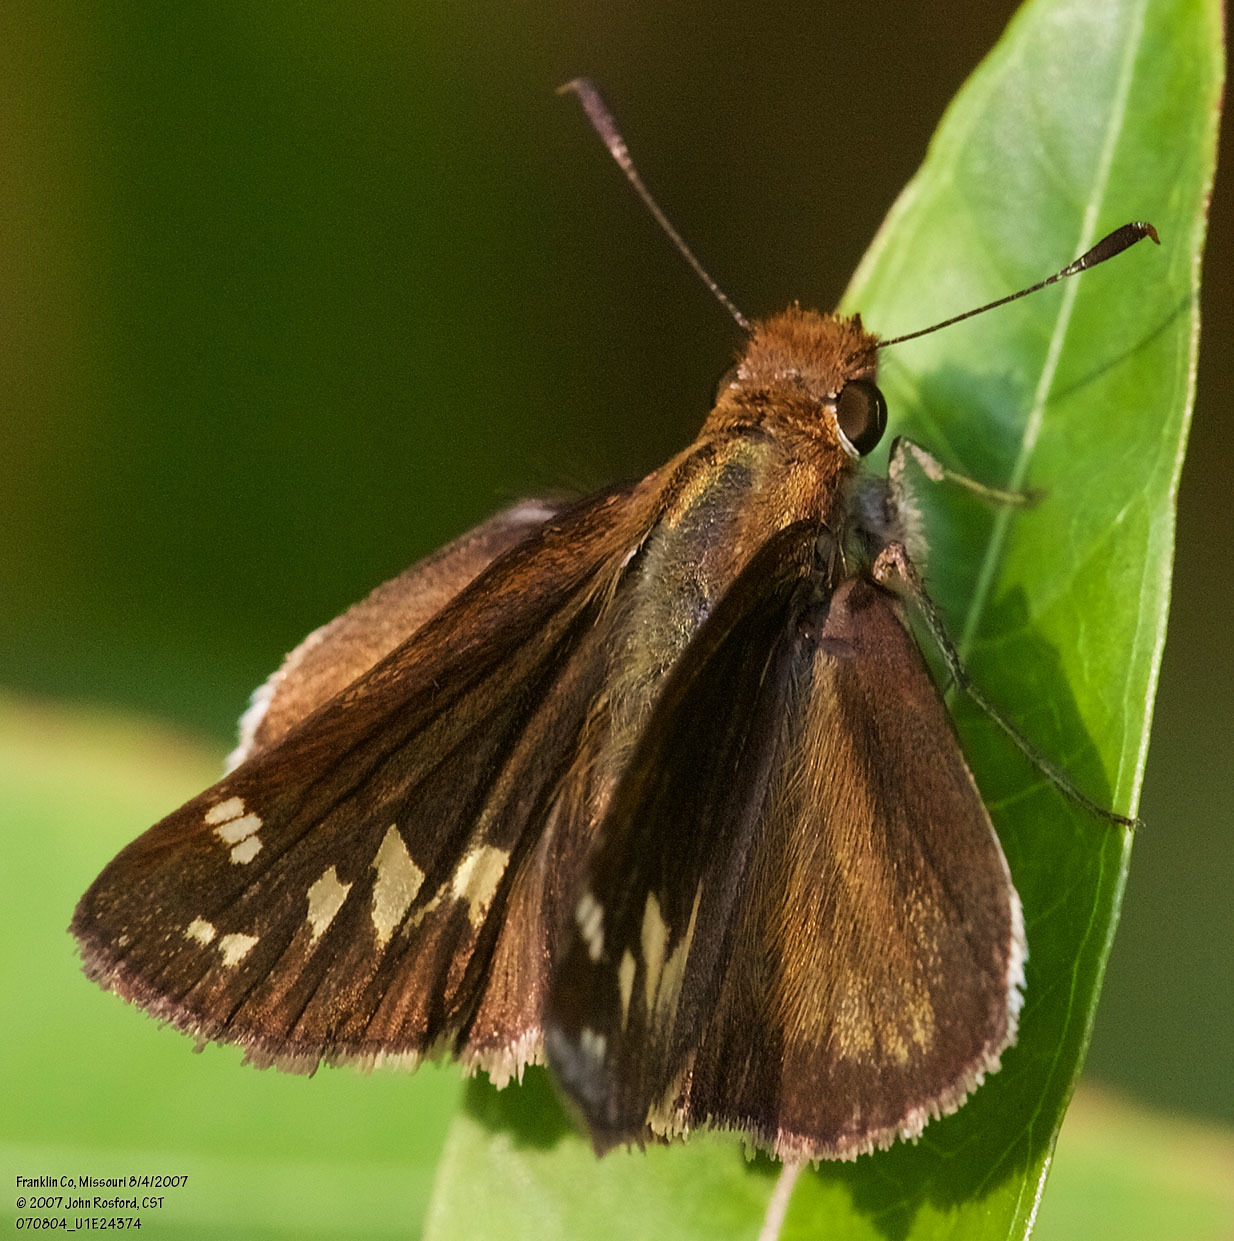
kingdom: Animalia
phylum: Arthropoda
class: Insecta
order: Lepidoptera
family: Hesperiidae
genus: Lon
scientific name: Lon zabulon
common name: Zabulon skipper
